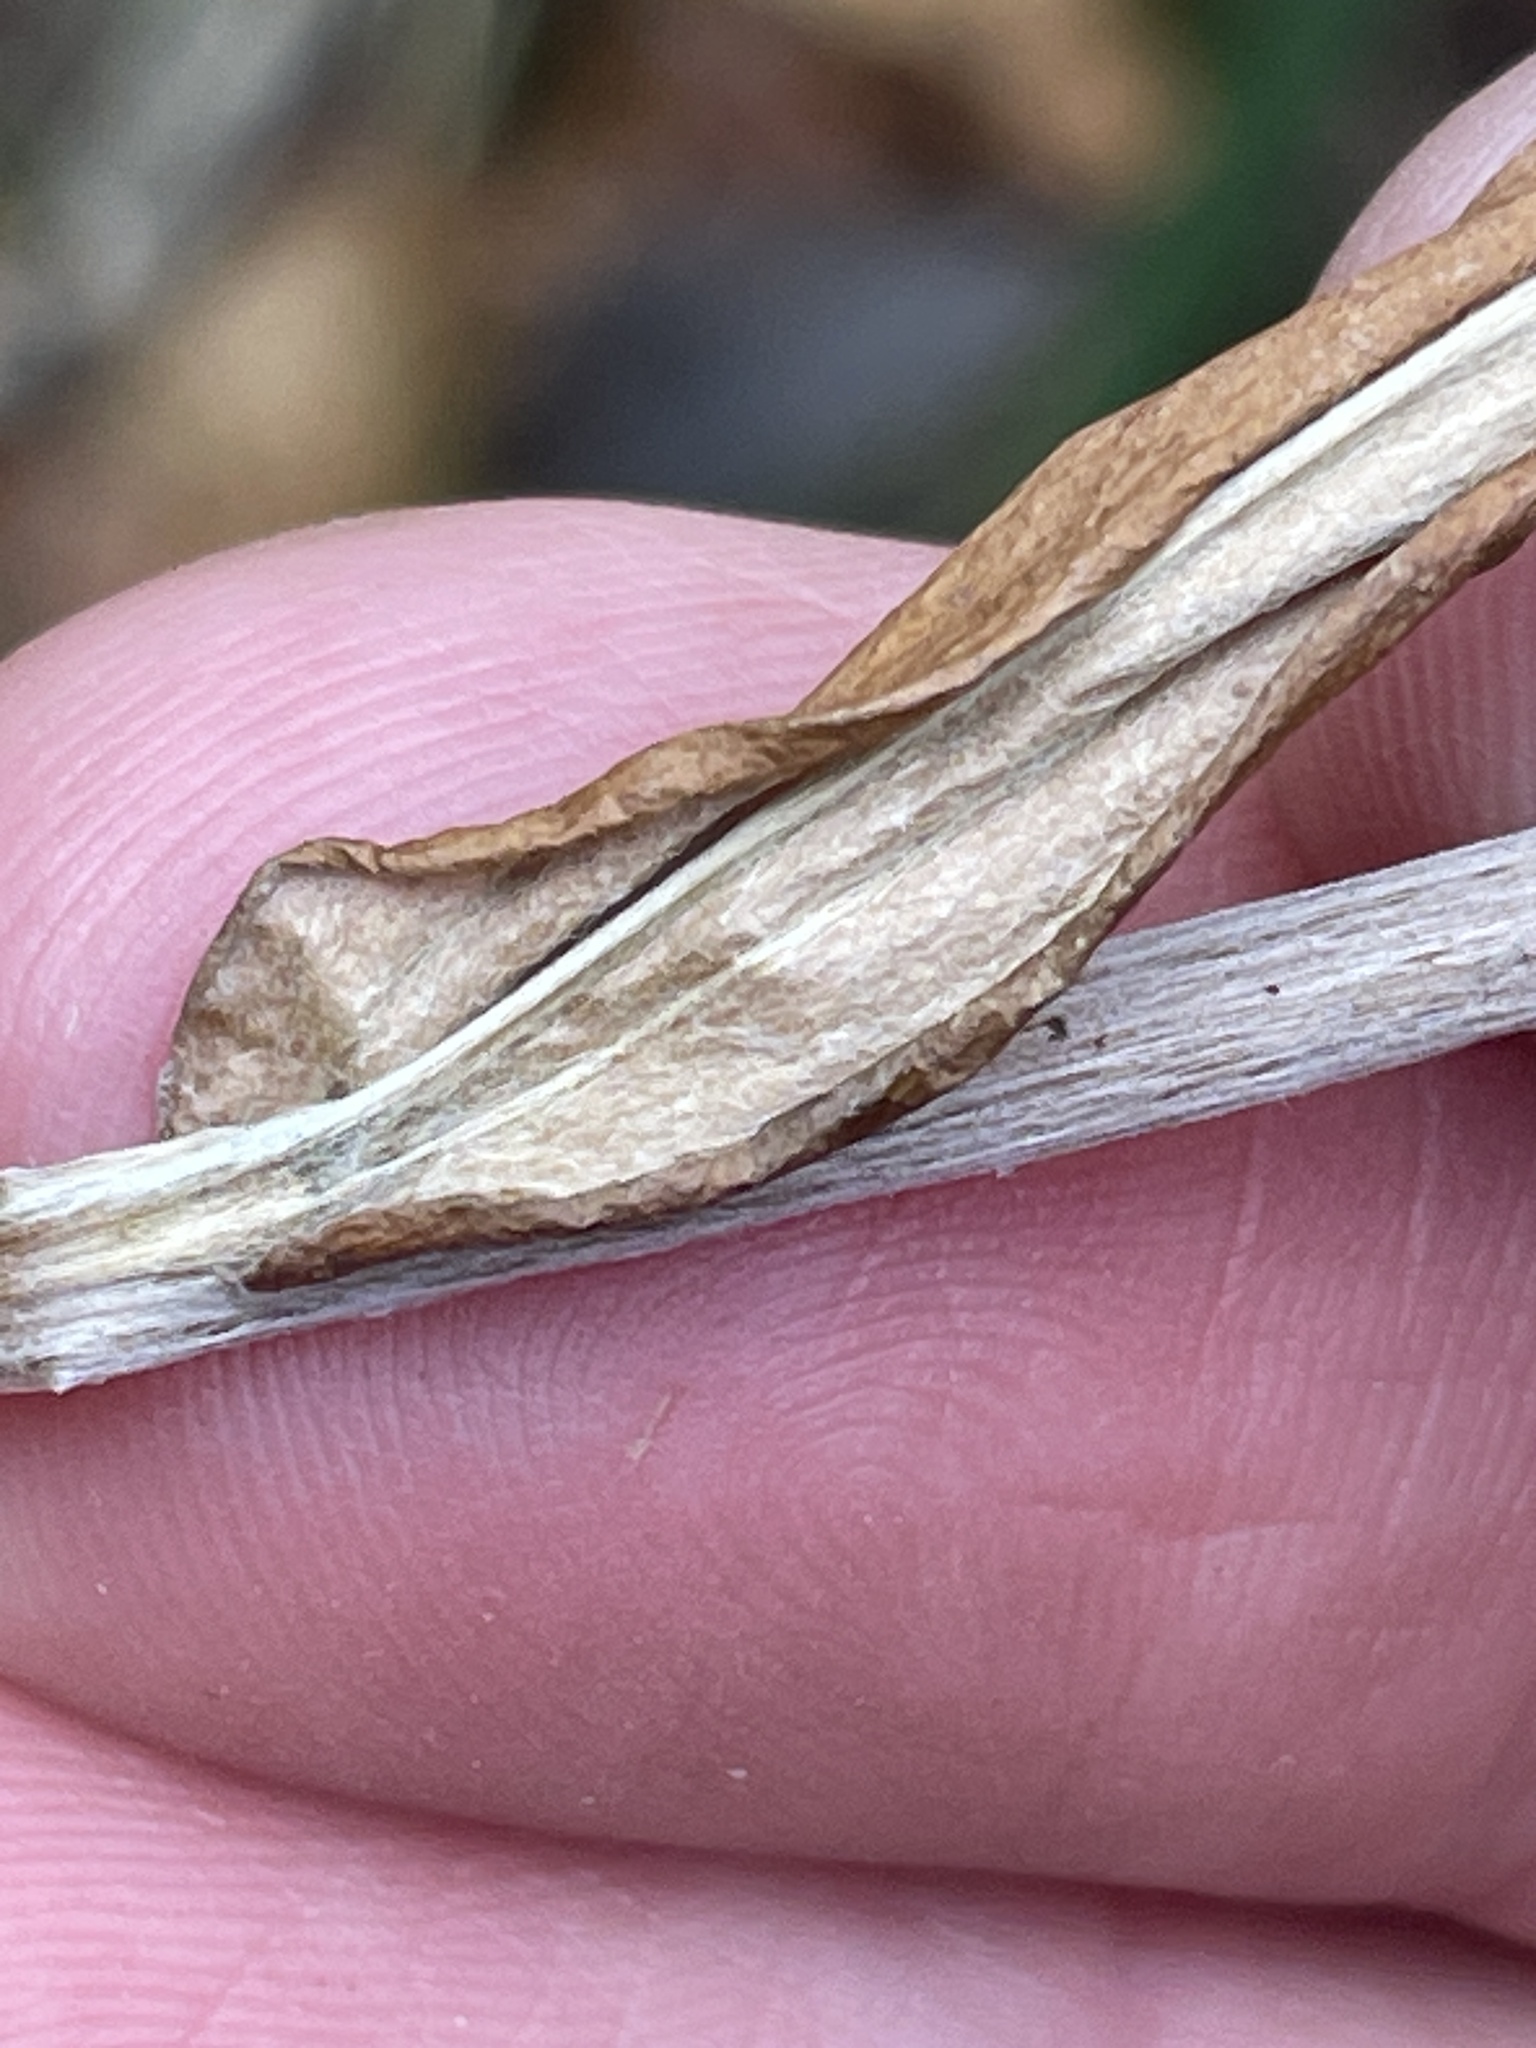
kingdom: Plantae
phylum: Tracheophyta
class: Magnoliopsida
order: Asterales
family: Asteraceae
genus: Anaphalis
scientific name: Anaphalis margaritacea
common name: Pearly everlasting
